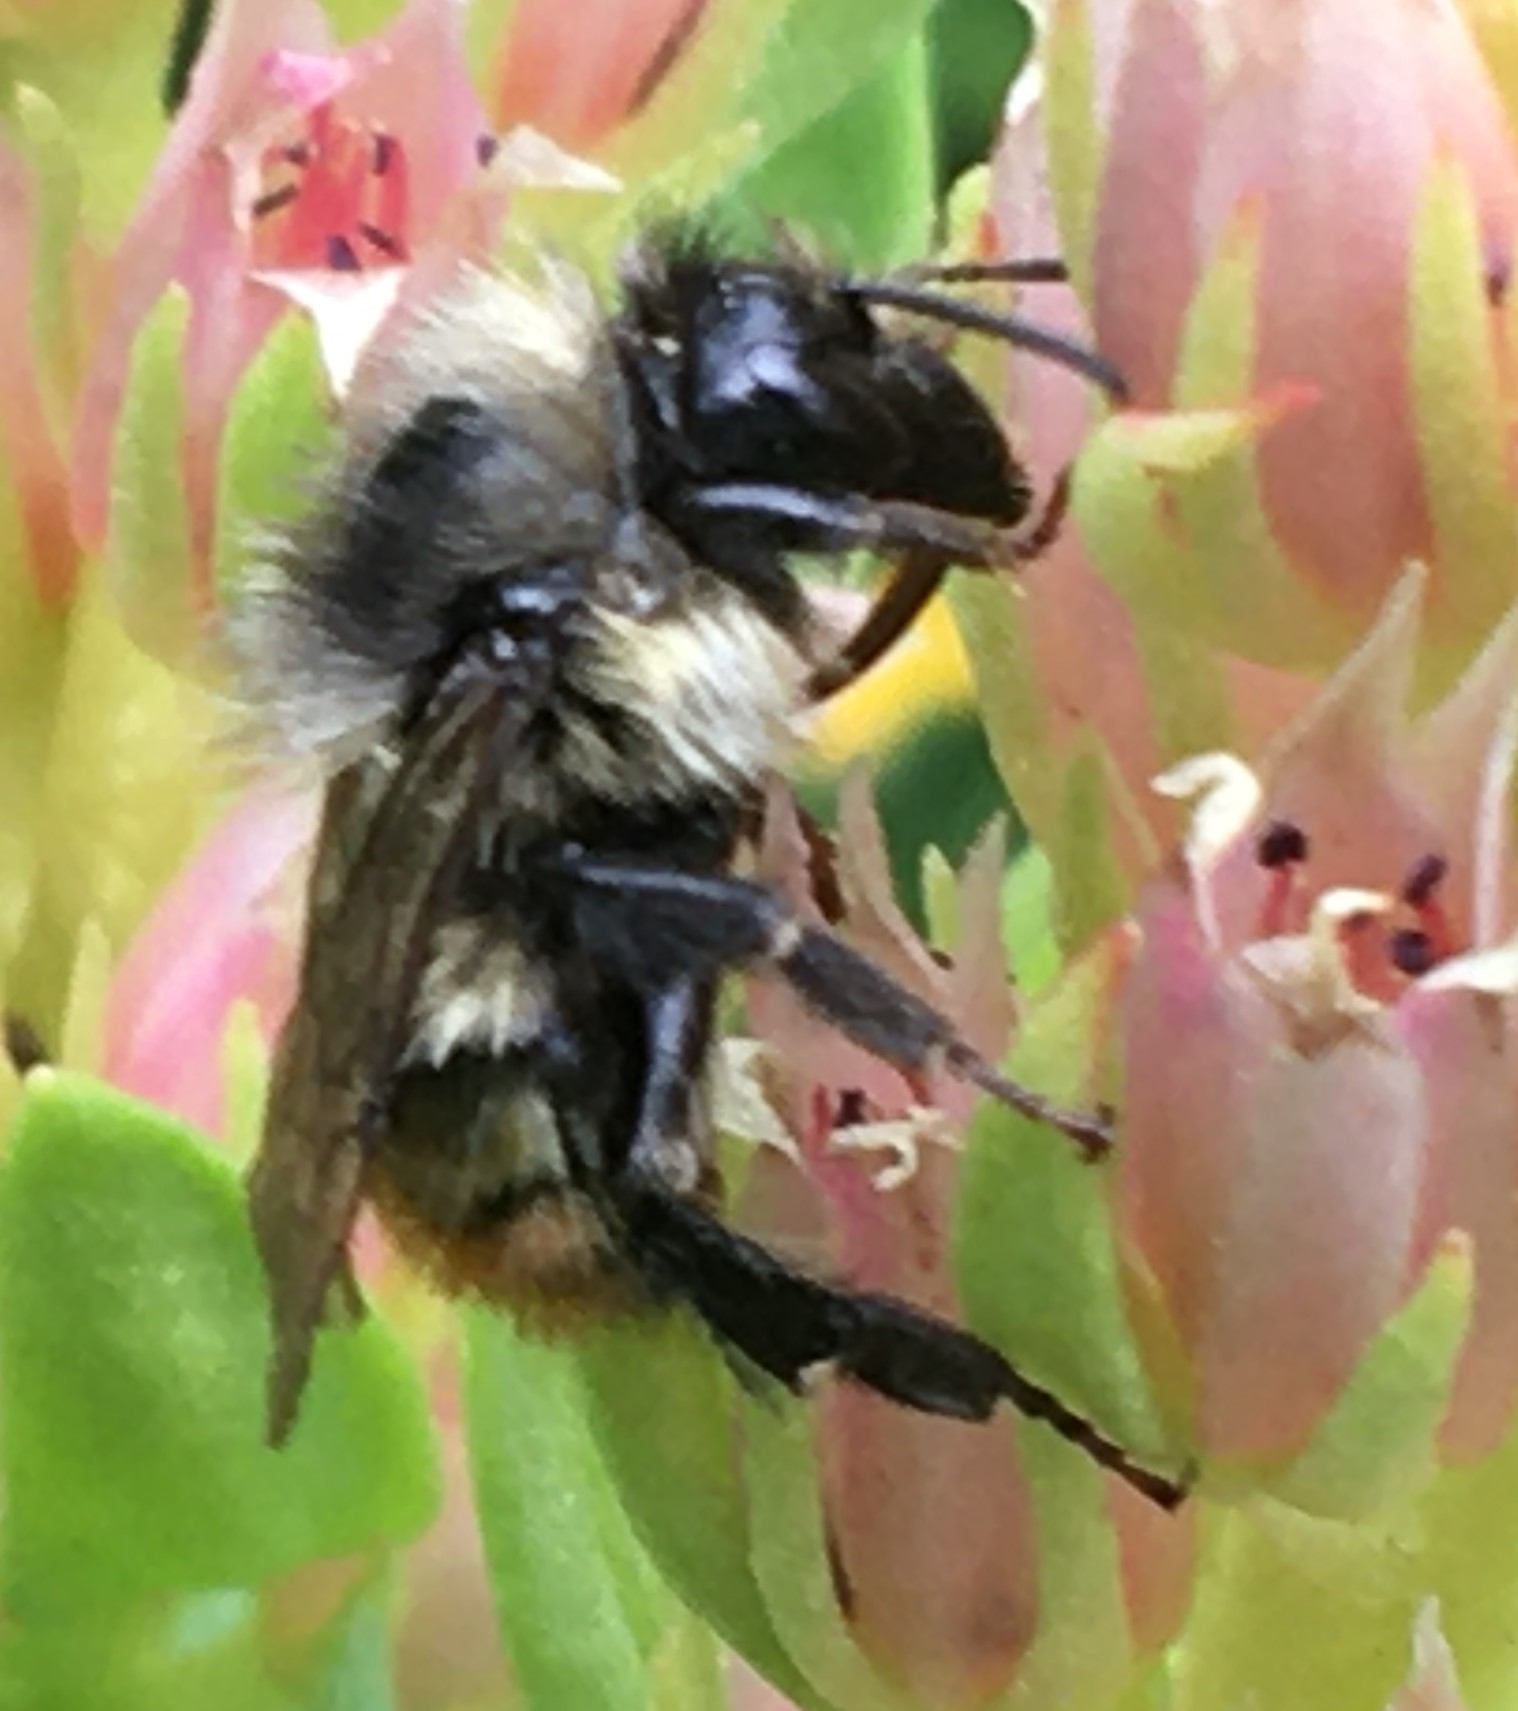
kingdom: Animalia
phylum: Arthropoda
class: Insecta
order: Hymenoptera
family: Apidae
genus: Bombus
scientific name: Bombus flavifrons
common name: Yellow head bumble bee
